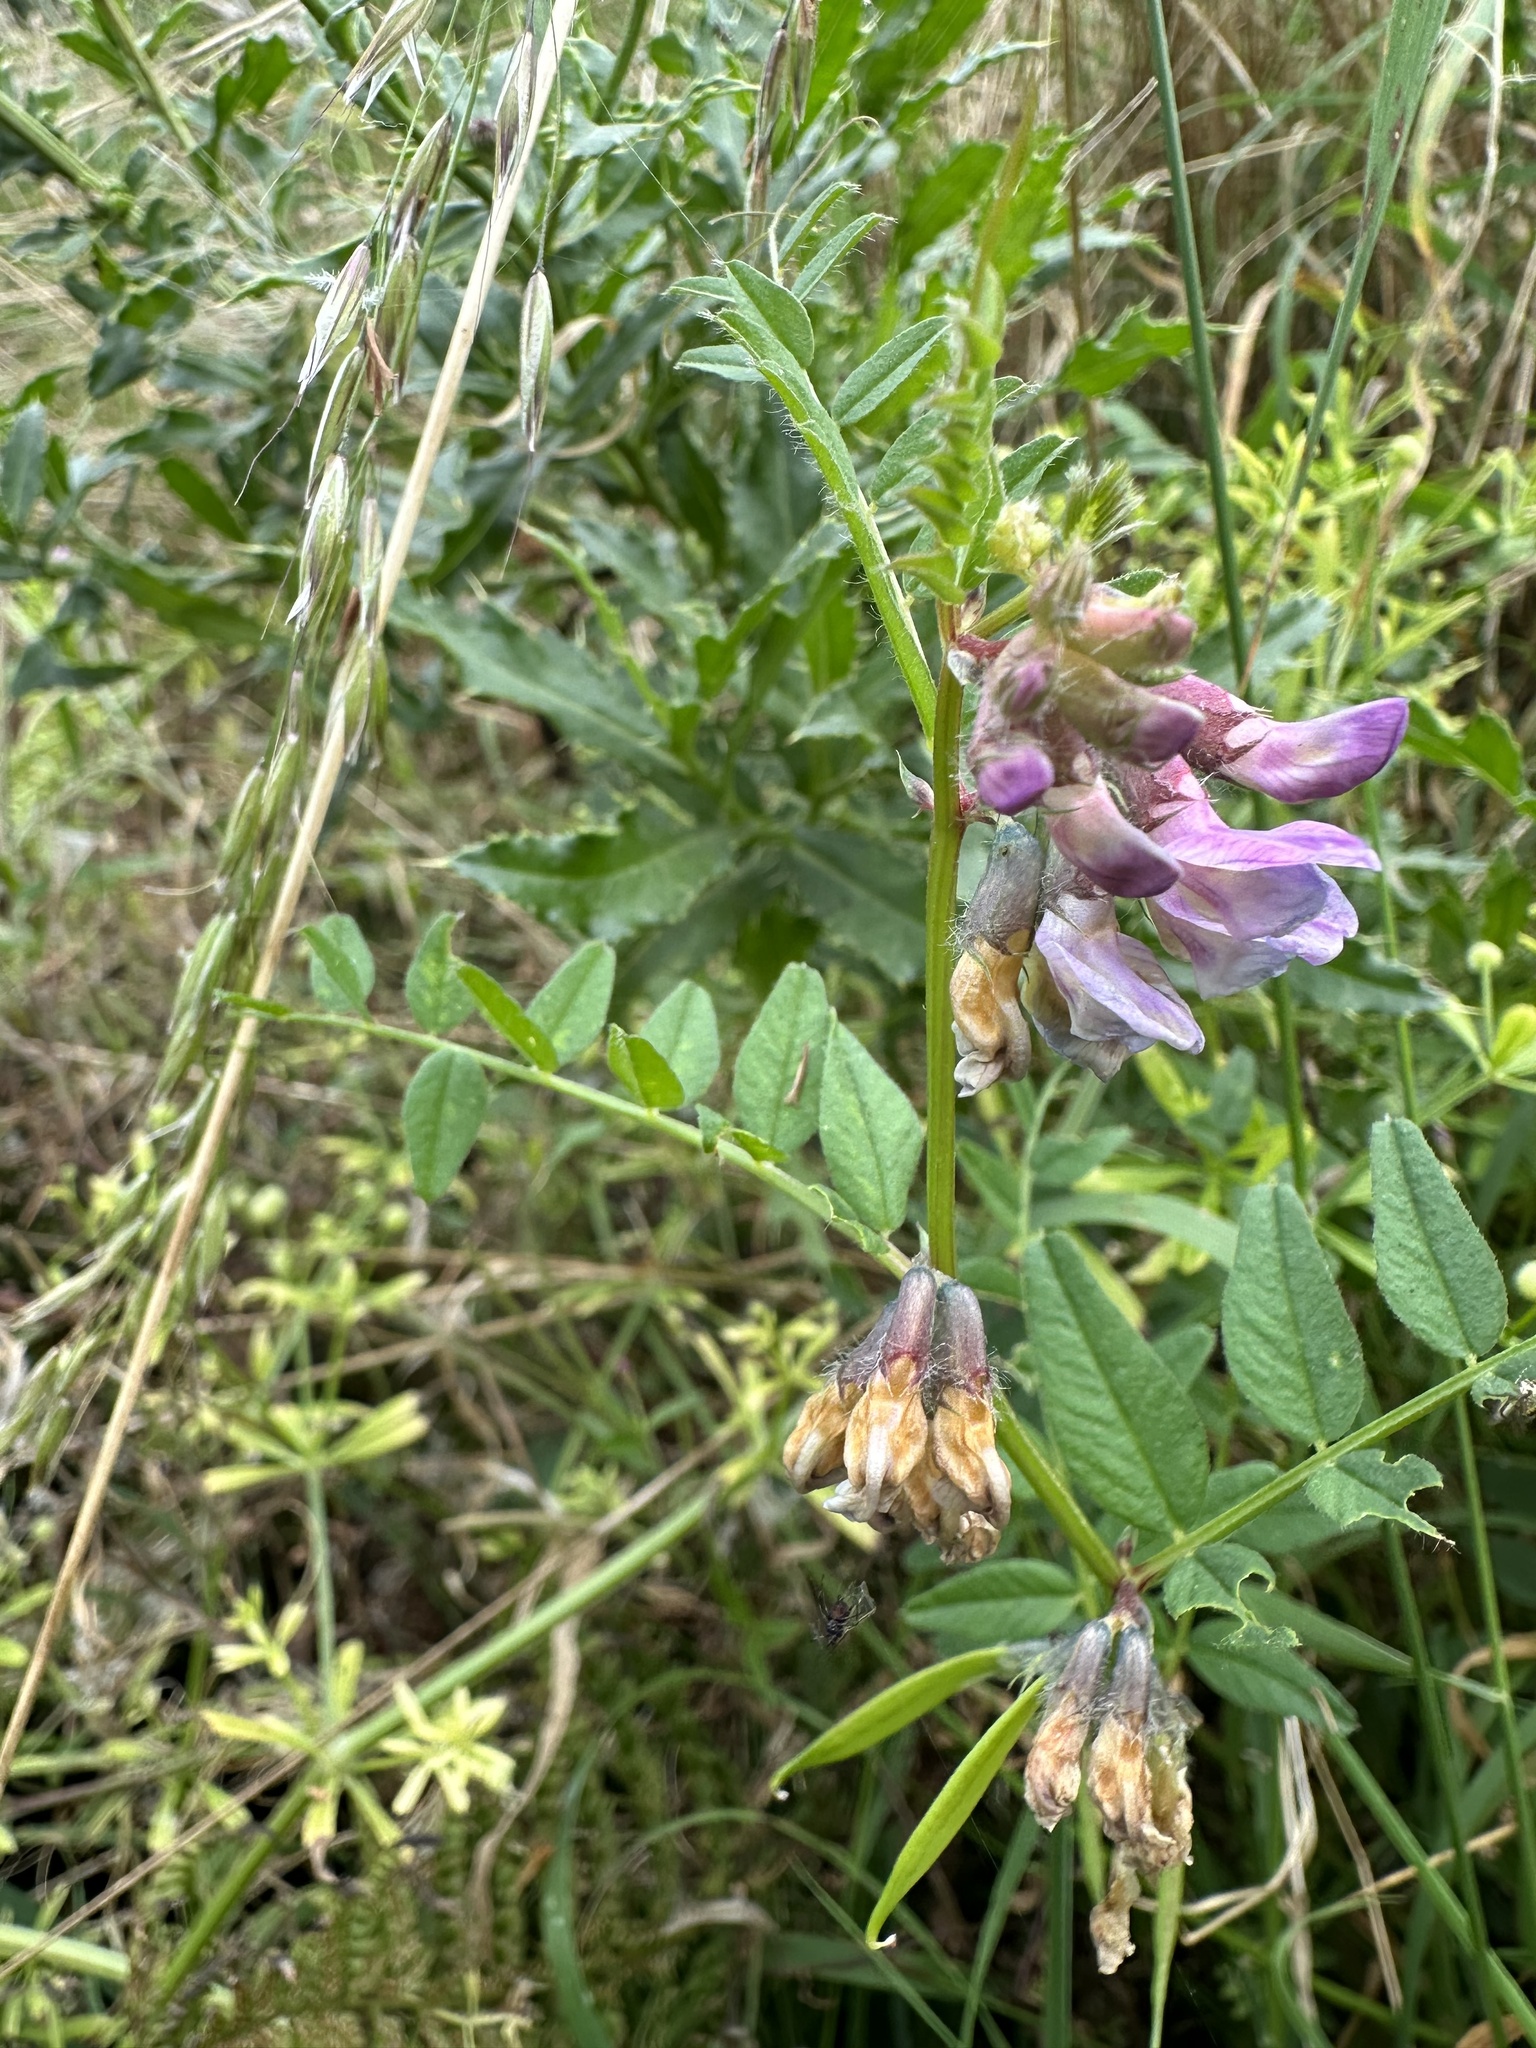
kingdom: Plantae
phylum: Tracheophyta
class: Magnoliopsida
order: Fabales
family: Fabaceae
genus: Vicia
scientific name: Vicia sepium
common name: Bush vetch
